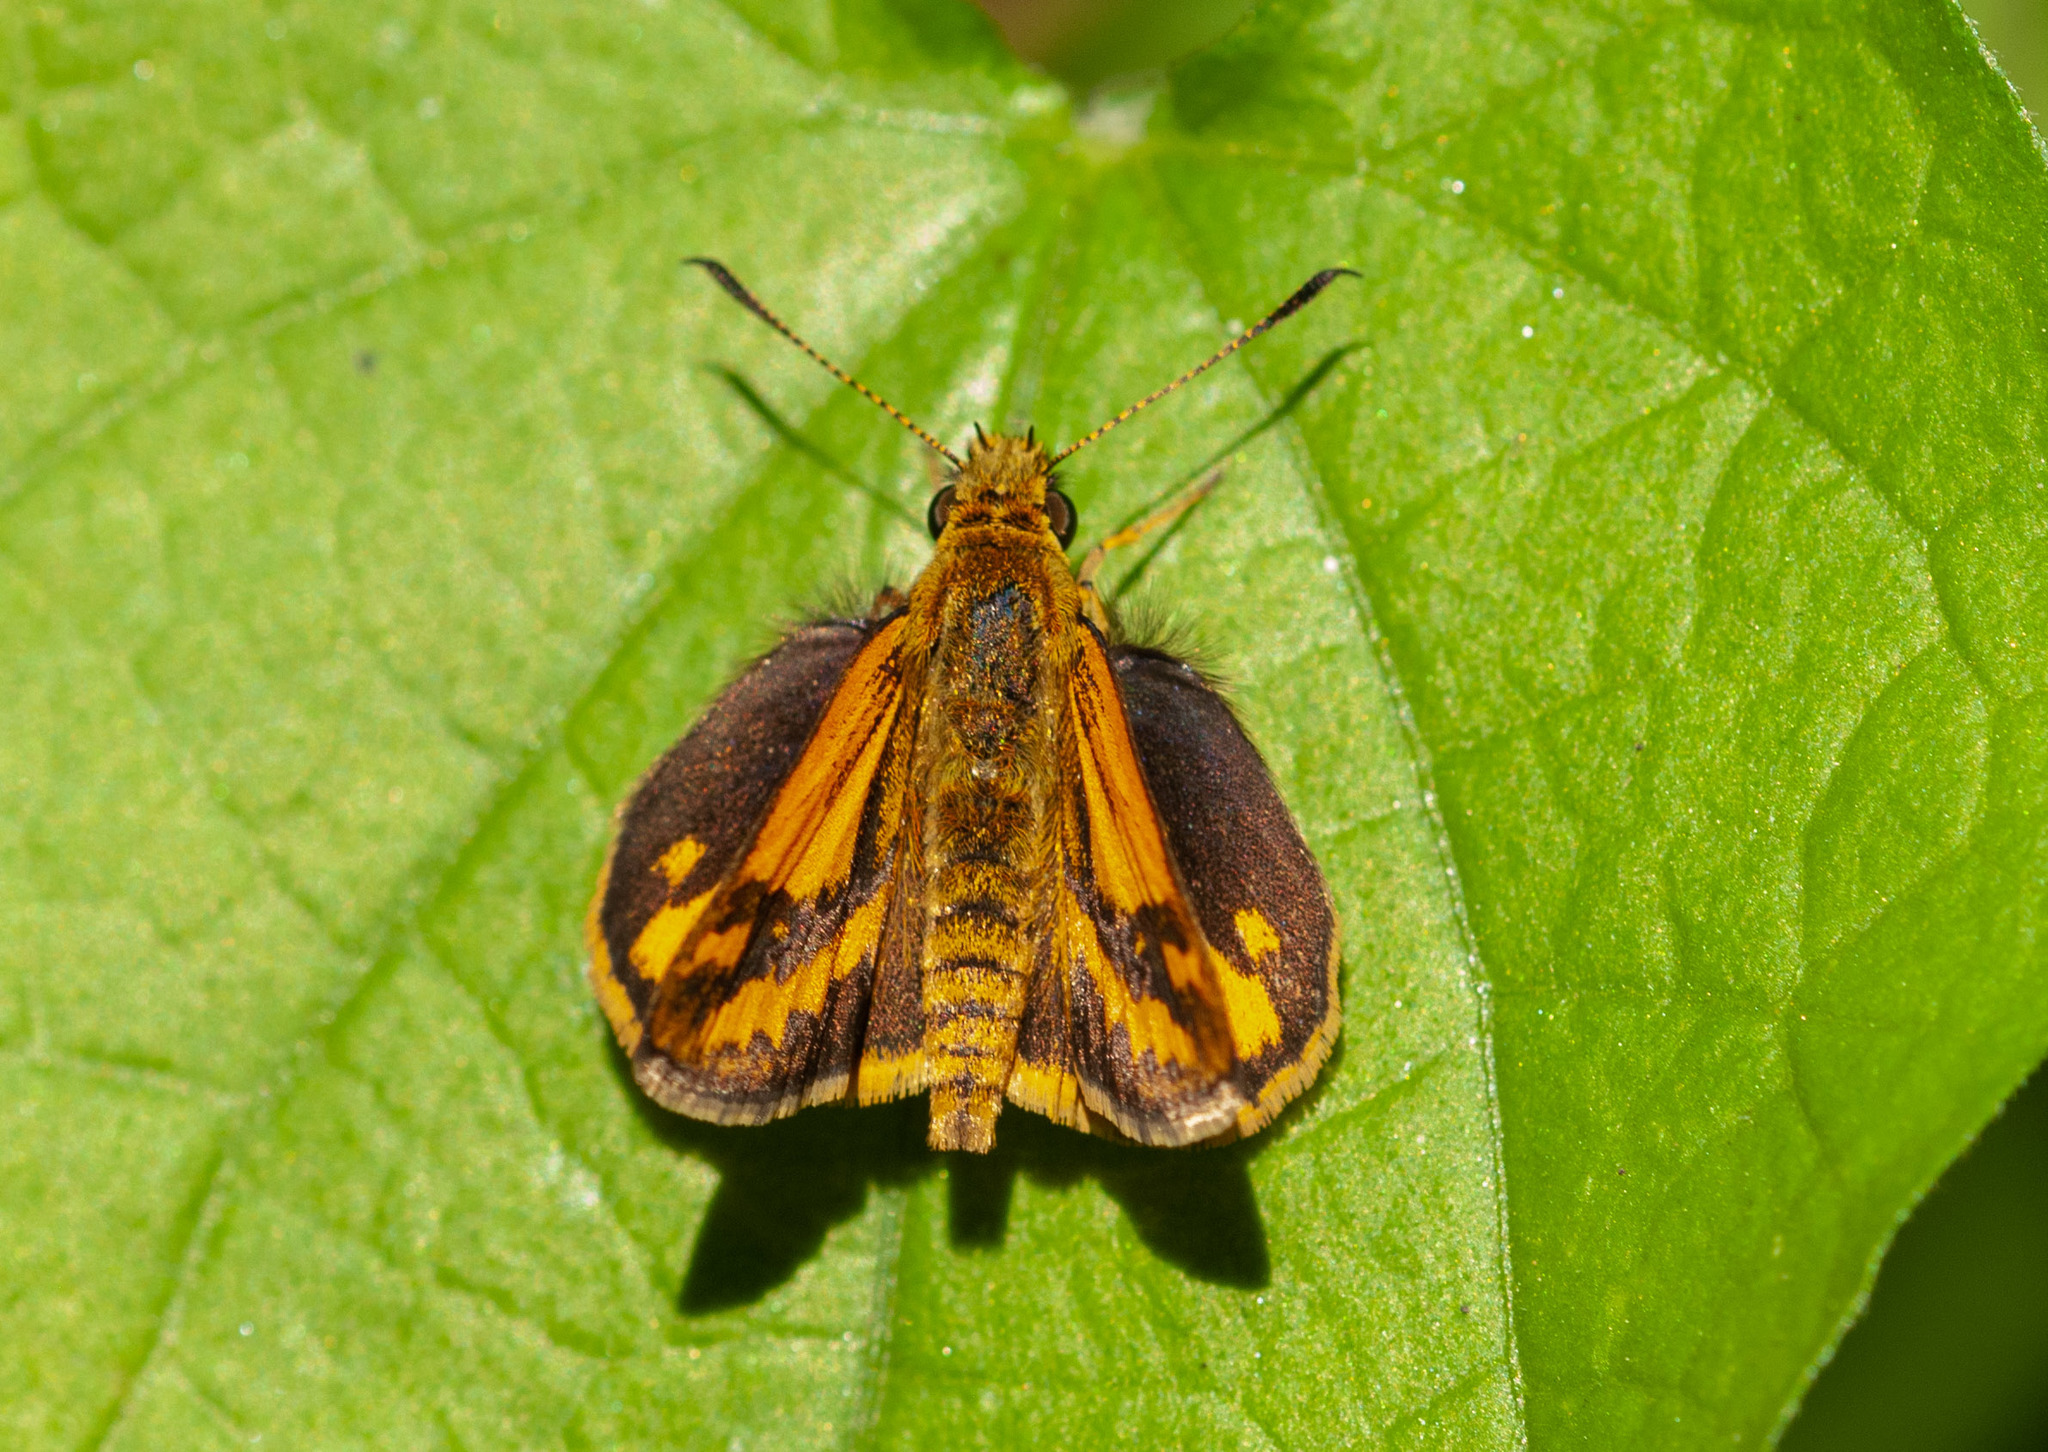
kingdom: Animalia
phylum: Arthropoda
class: Insecta
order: Lepidoptera
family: Hesperiidae
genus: Suniana
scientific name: Suniana sunias
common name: Wide-brand grass-dart
